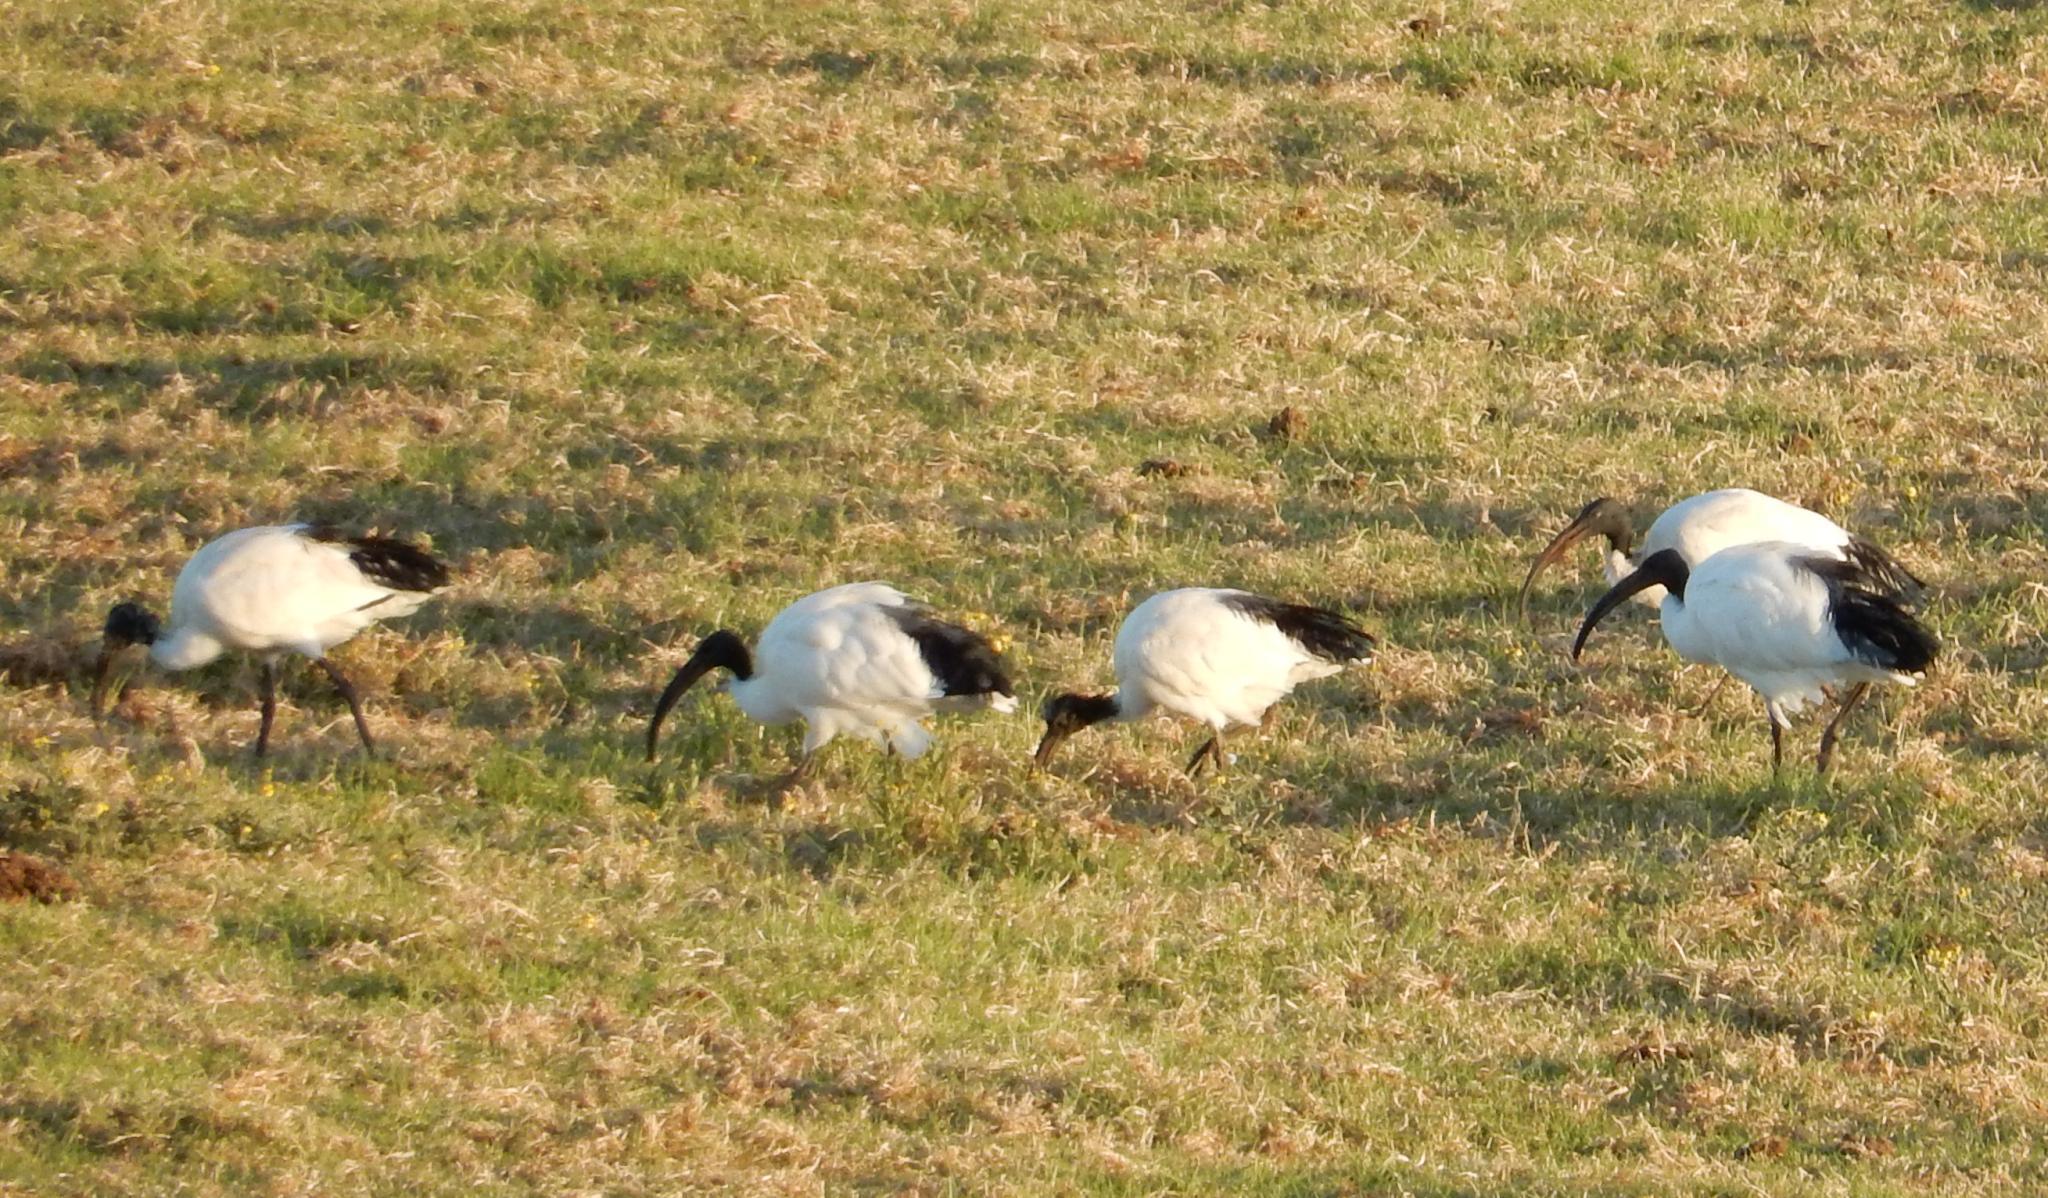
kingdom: Animalia
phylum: Chordata
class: Aves
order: Pelecaniformes
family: Threskiornithidae
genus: Threskiornis
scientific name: Threskiornis aethiopicus
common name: Sacred ibis
